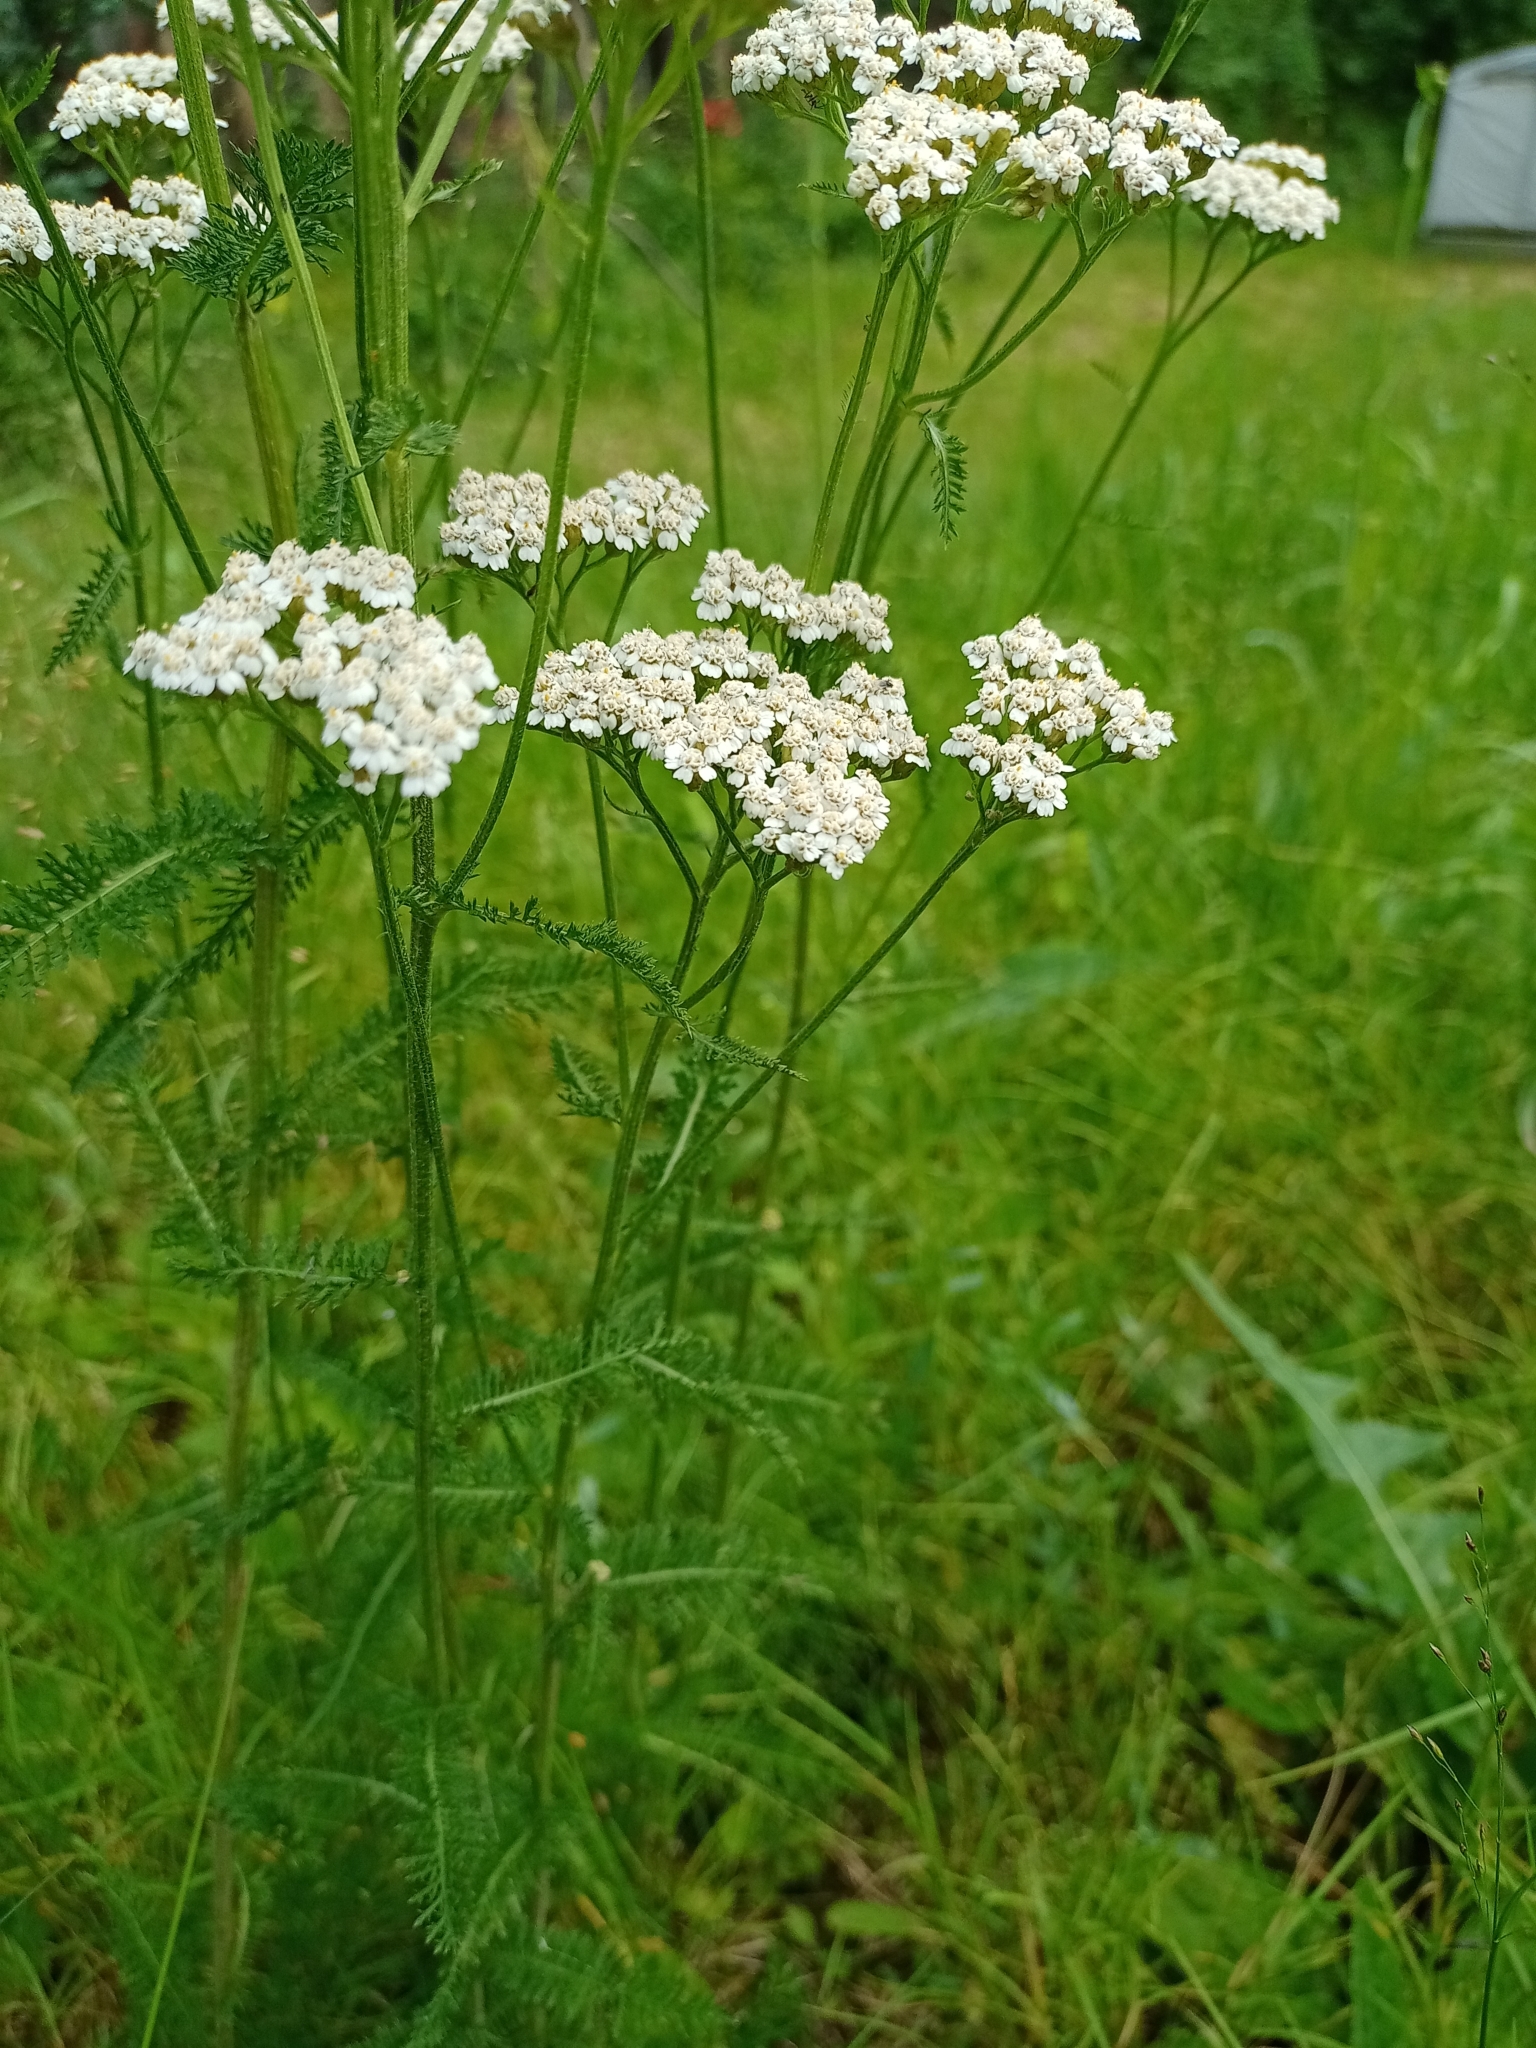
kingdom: Plantae
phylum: Tracheophyta
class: Magnoliopsida
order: Asterales
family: Asteraceae
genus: Achillea
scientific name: Achillea millefolium
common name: Yarrow
